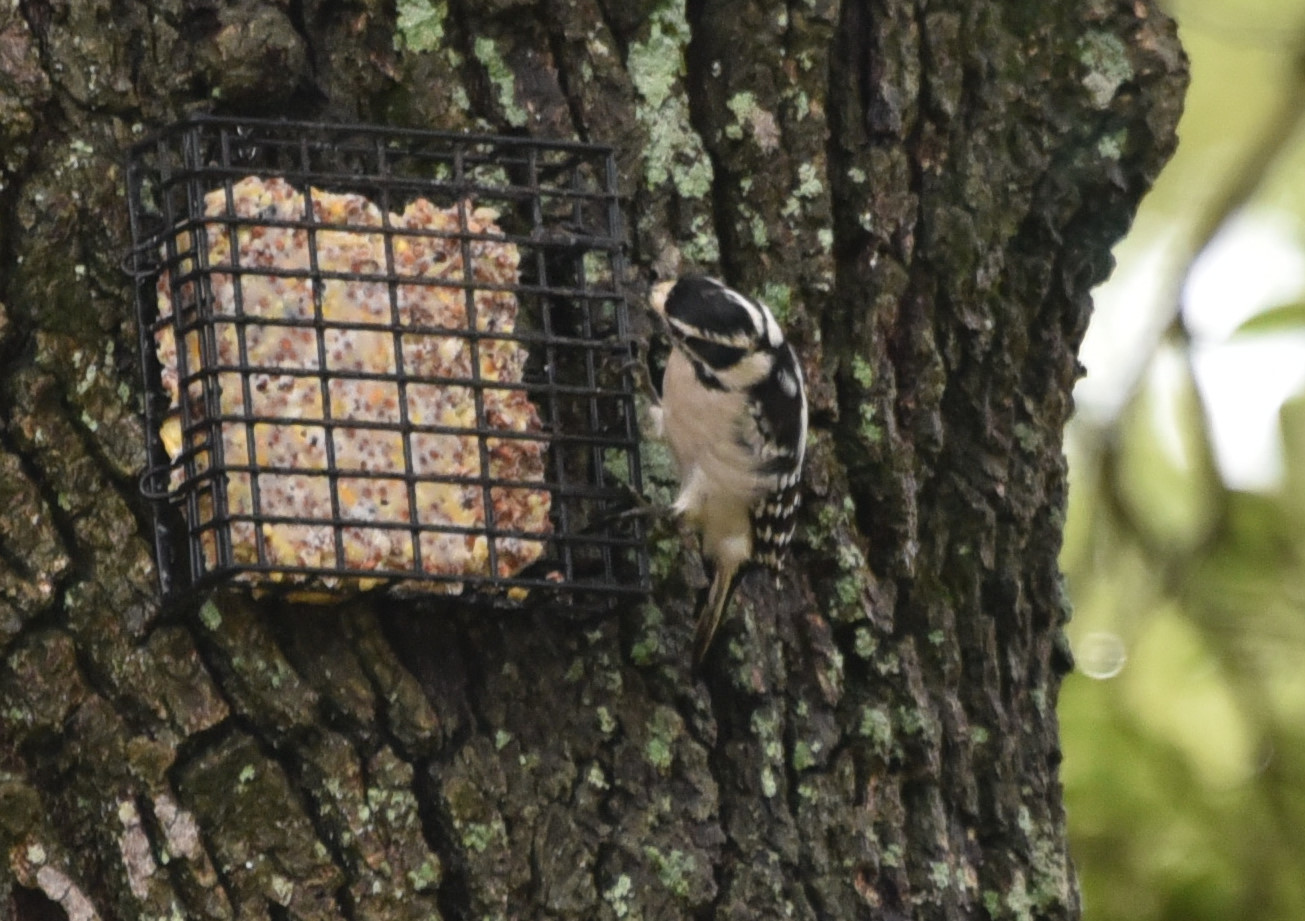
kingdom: Animalia
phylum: Chordata
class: Aves
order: Piciformes
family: Picidae
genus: Dryobates
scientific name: Dryobates pubescens
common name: Downy woodpecker
